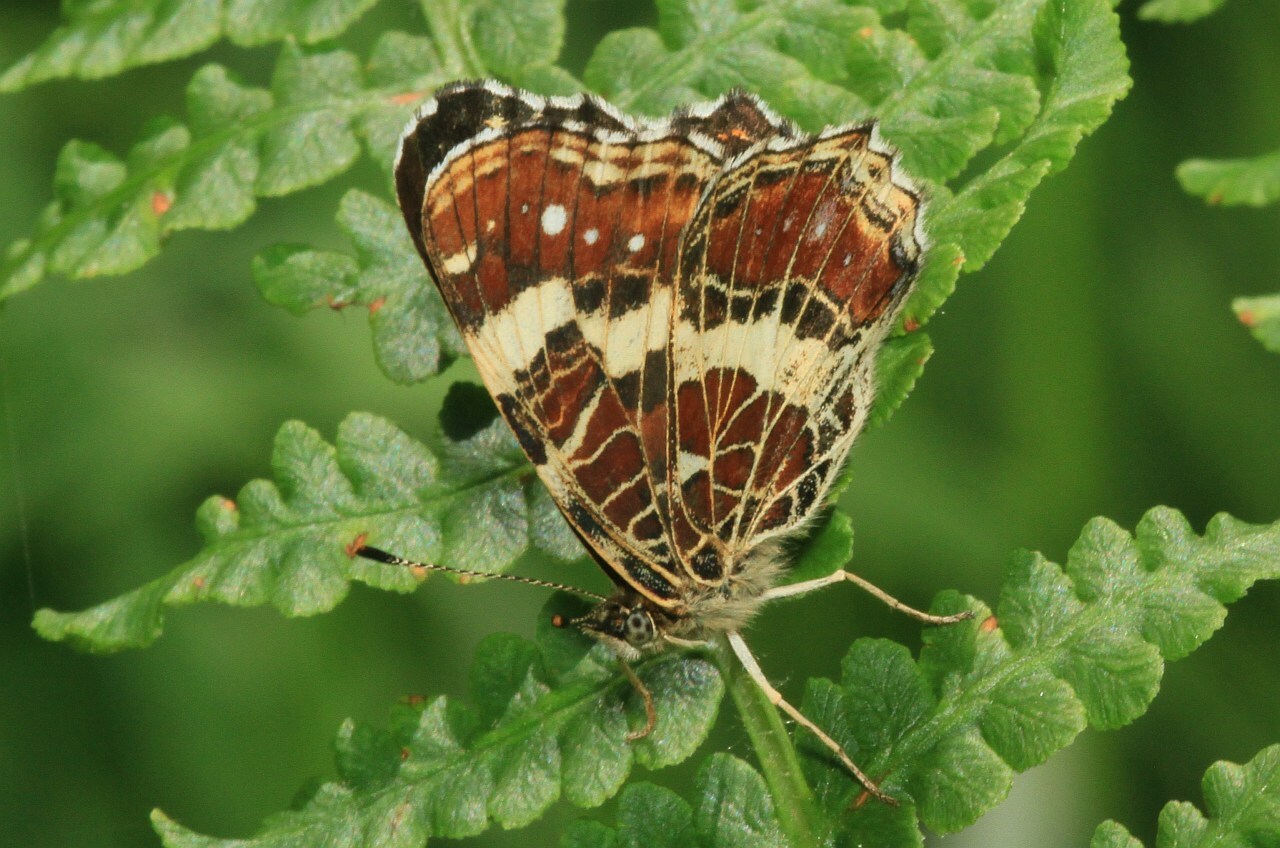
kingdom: Animalia
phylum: Arthropoda
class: Insecta
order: Lepidoptera
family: Nymphalidae
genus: Araschnia
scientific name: Araschnia levana
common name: Map butterfly
